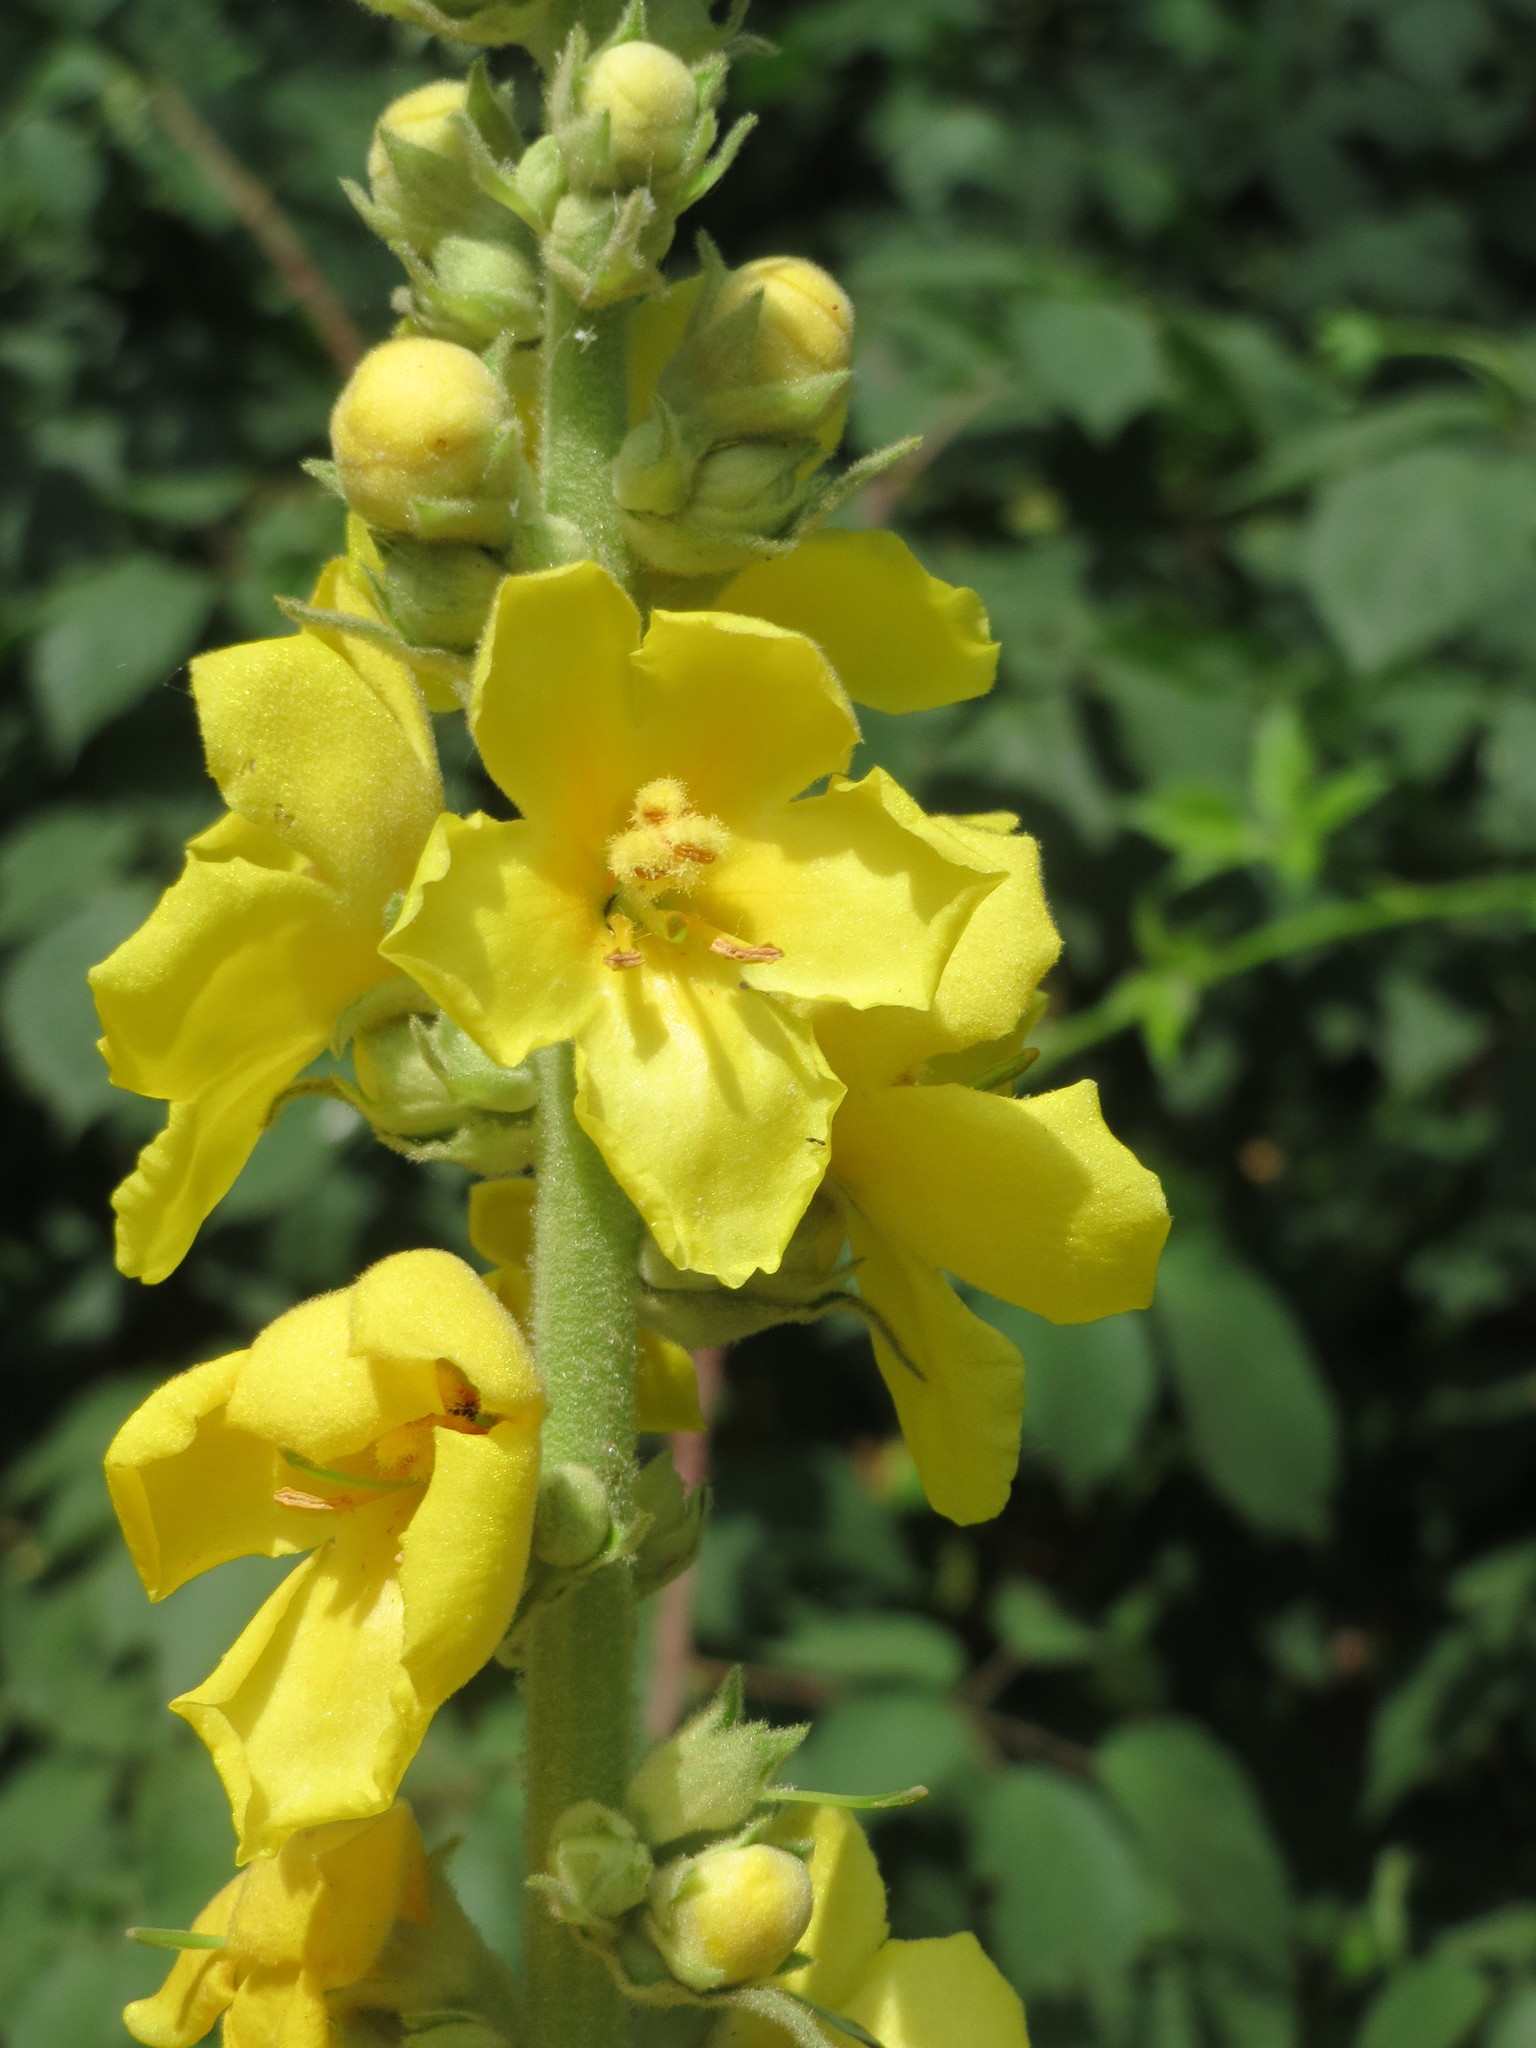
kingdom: Plantae
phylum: Tracheophyta
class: Magnoliopsida
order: Lamiales
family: Scrophulariaceae
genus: Verbascum
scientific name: Verbascum densiflorum
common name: Dense-flowered mullein
